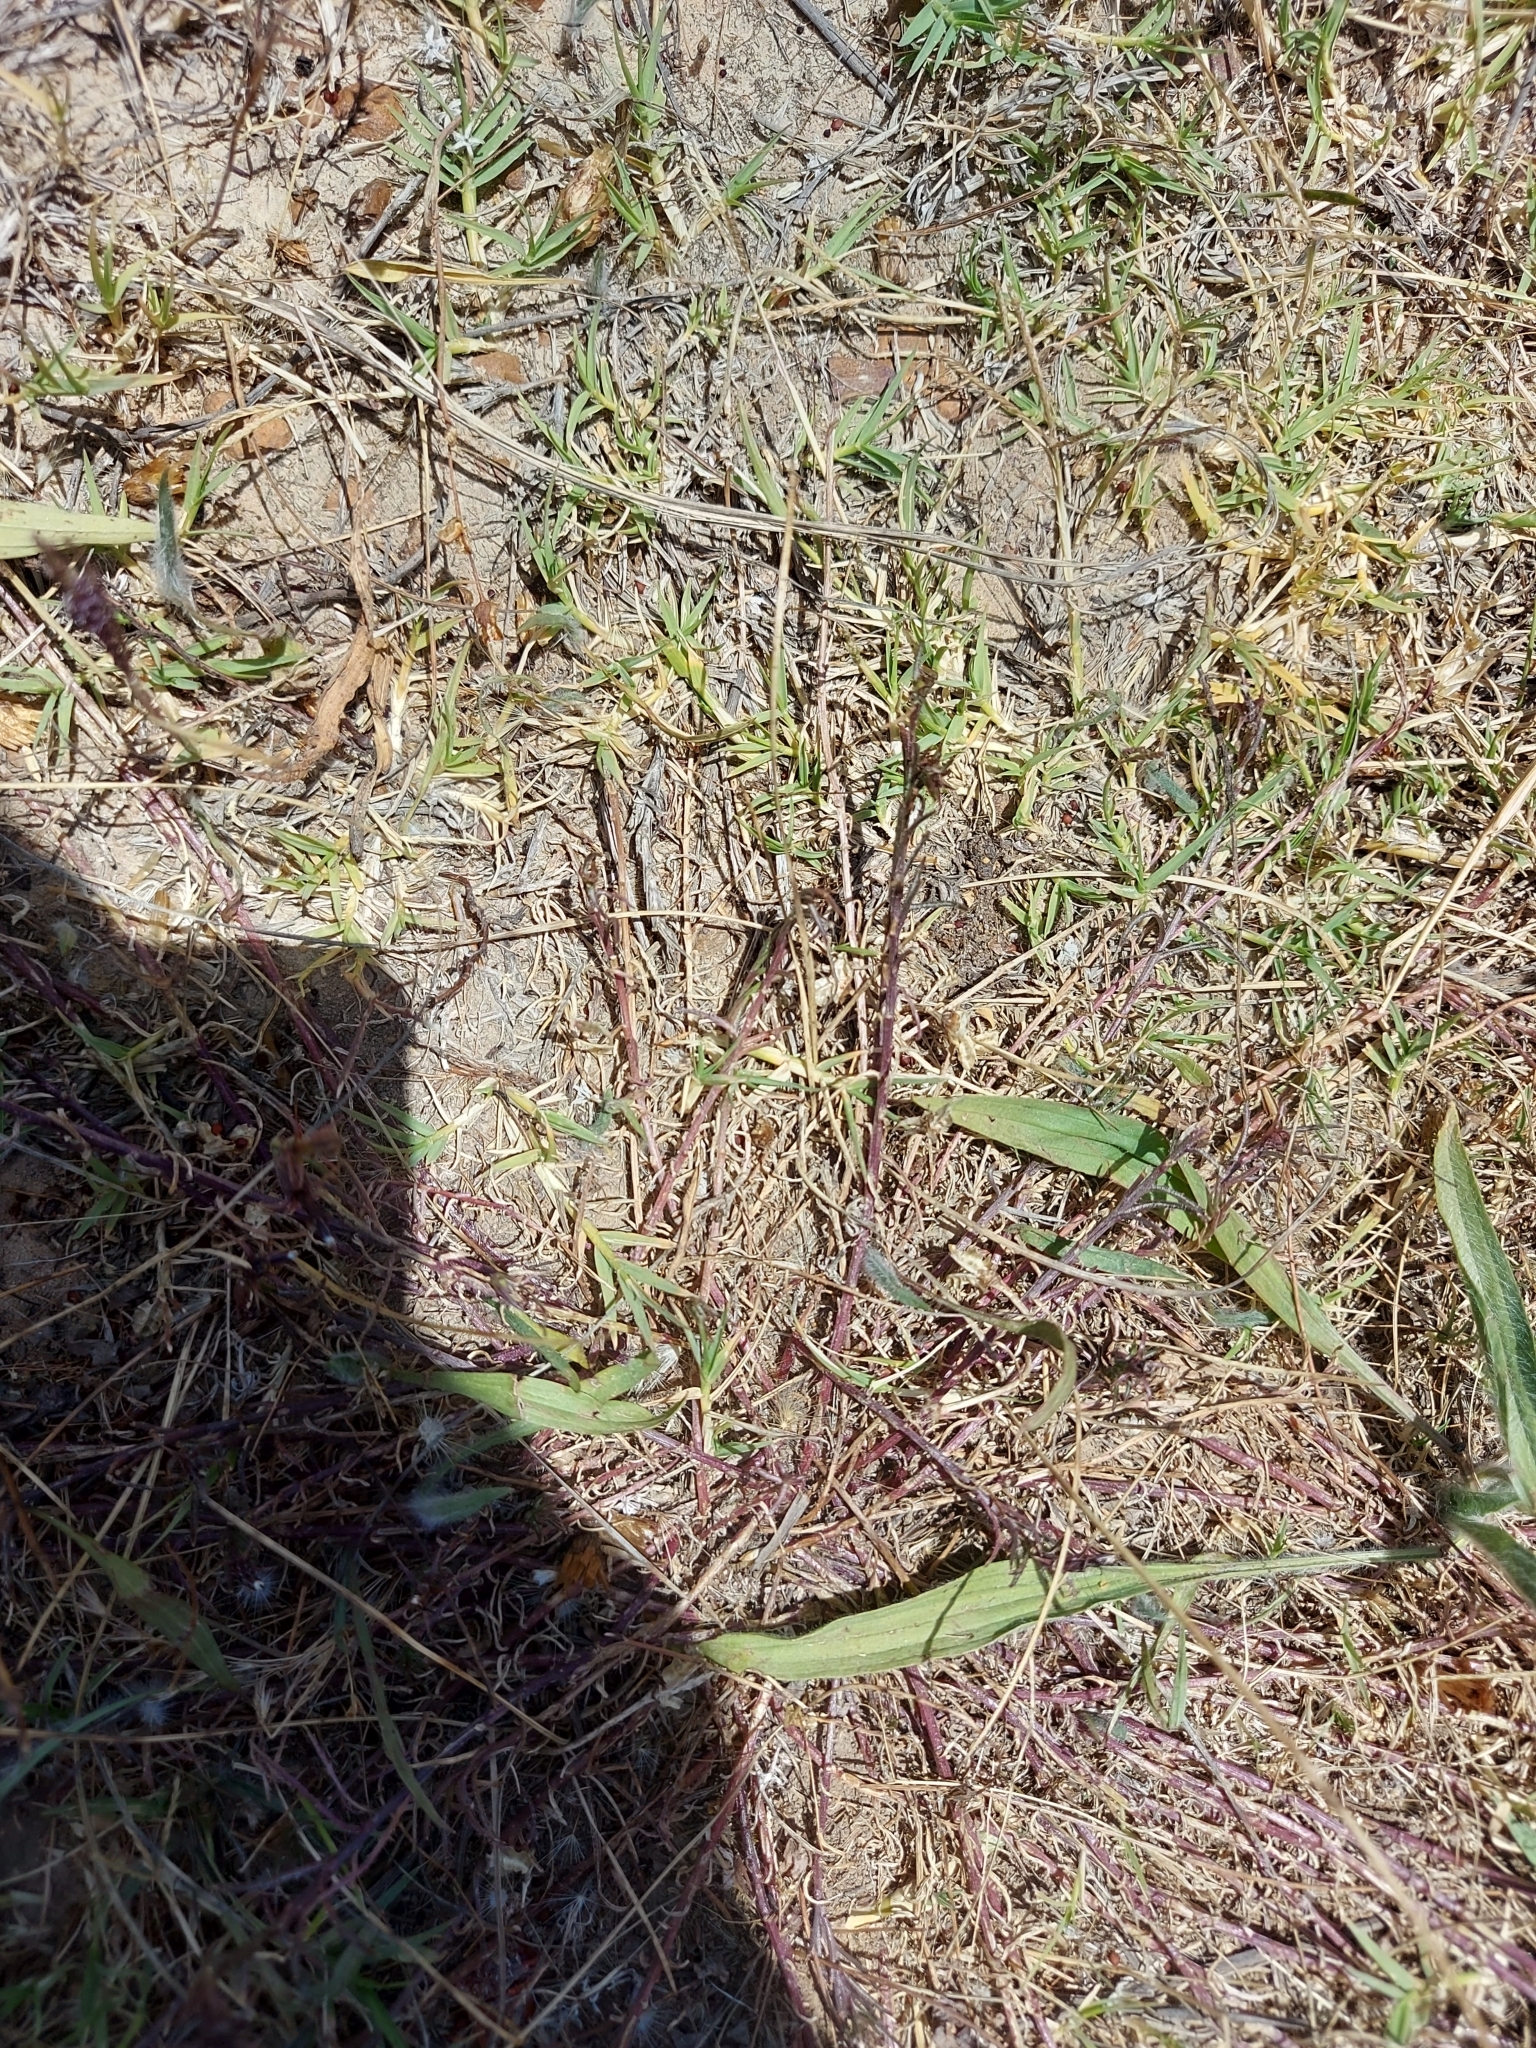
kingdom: Plantae
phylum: Tracheophyta
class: Magnoliopsida
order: Asterales
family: Campanulaceae
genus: Monopsis
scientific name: Monopsis lutea
